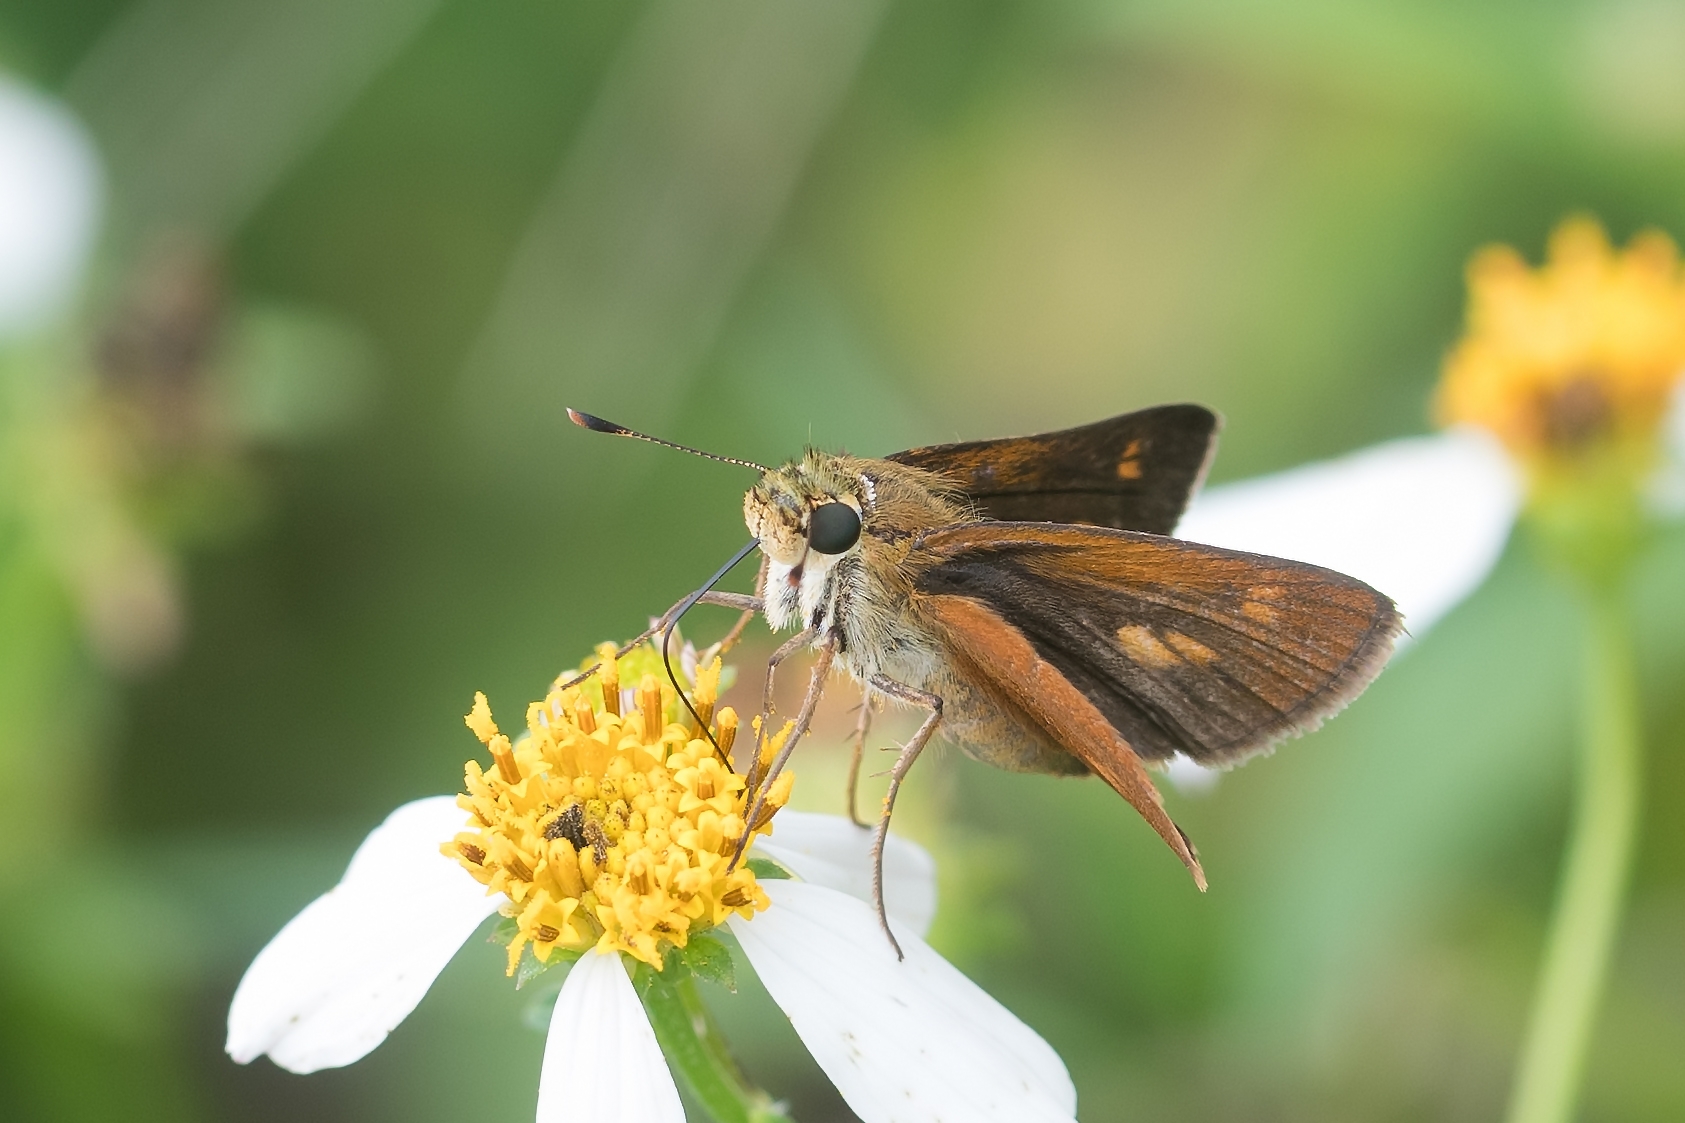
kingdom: Animalia
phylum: Arthropoda
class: Insecta
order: Lepidoptera
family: Hesperiidae
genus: Polites
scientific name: Polites otho
